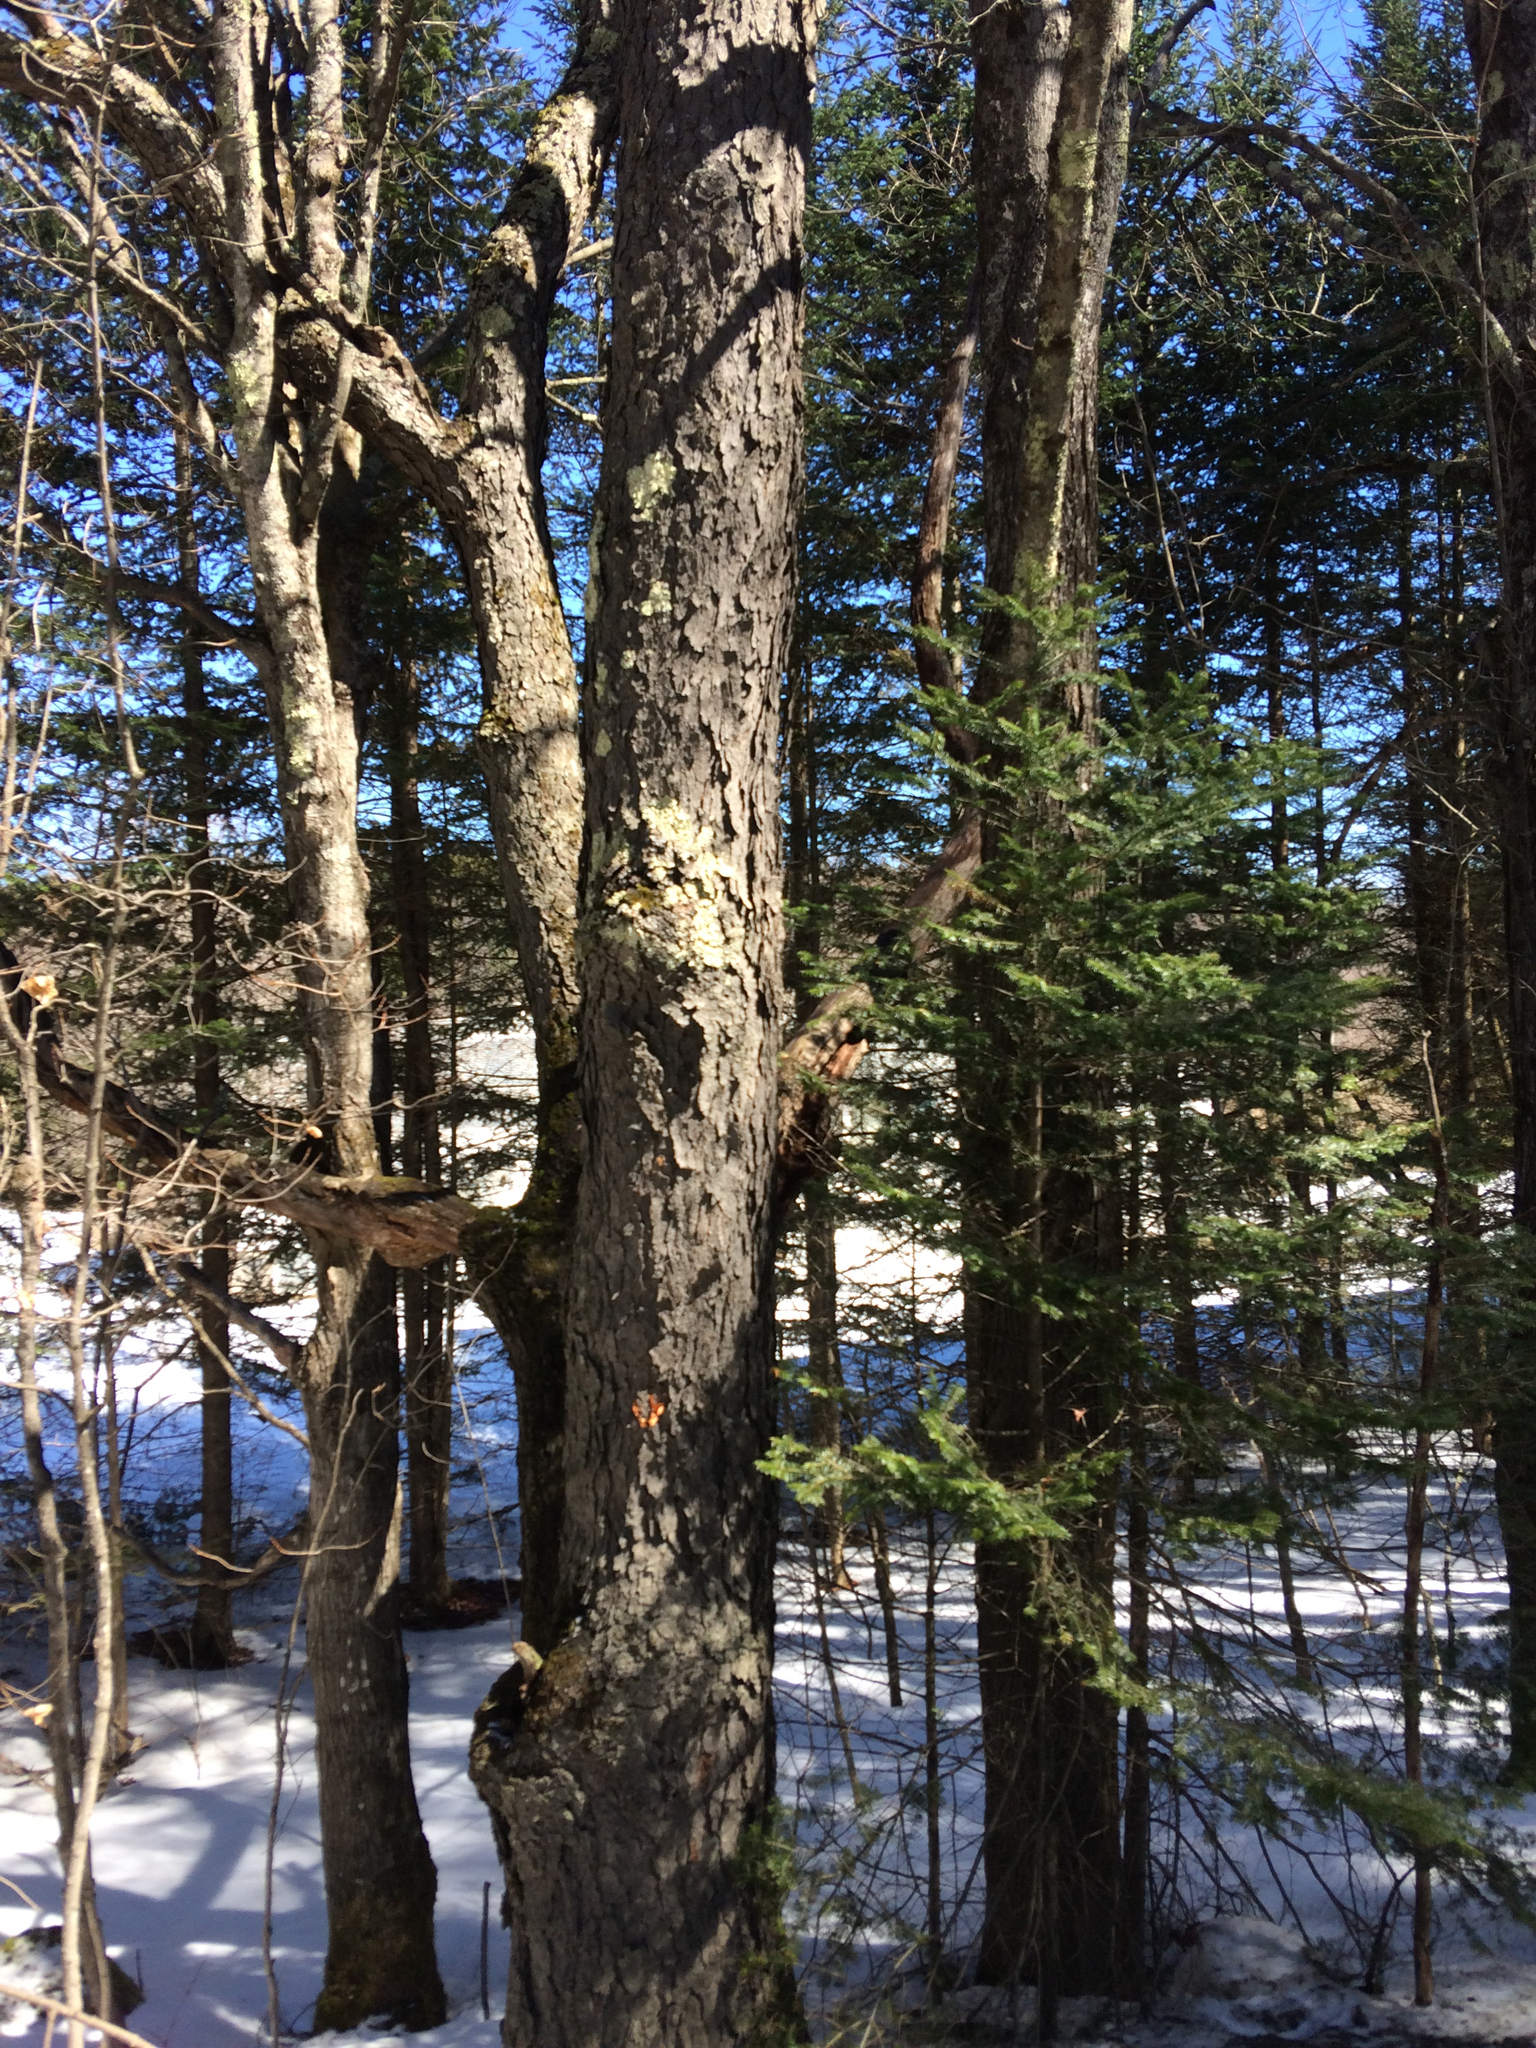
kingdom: Plantae
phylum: Tracheophyta
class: Magnoliopsida
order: Rosales
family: Rosaceae
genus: Prunus
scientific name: Prunus serotina
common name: Black cherry
